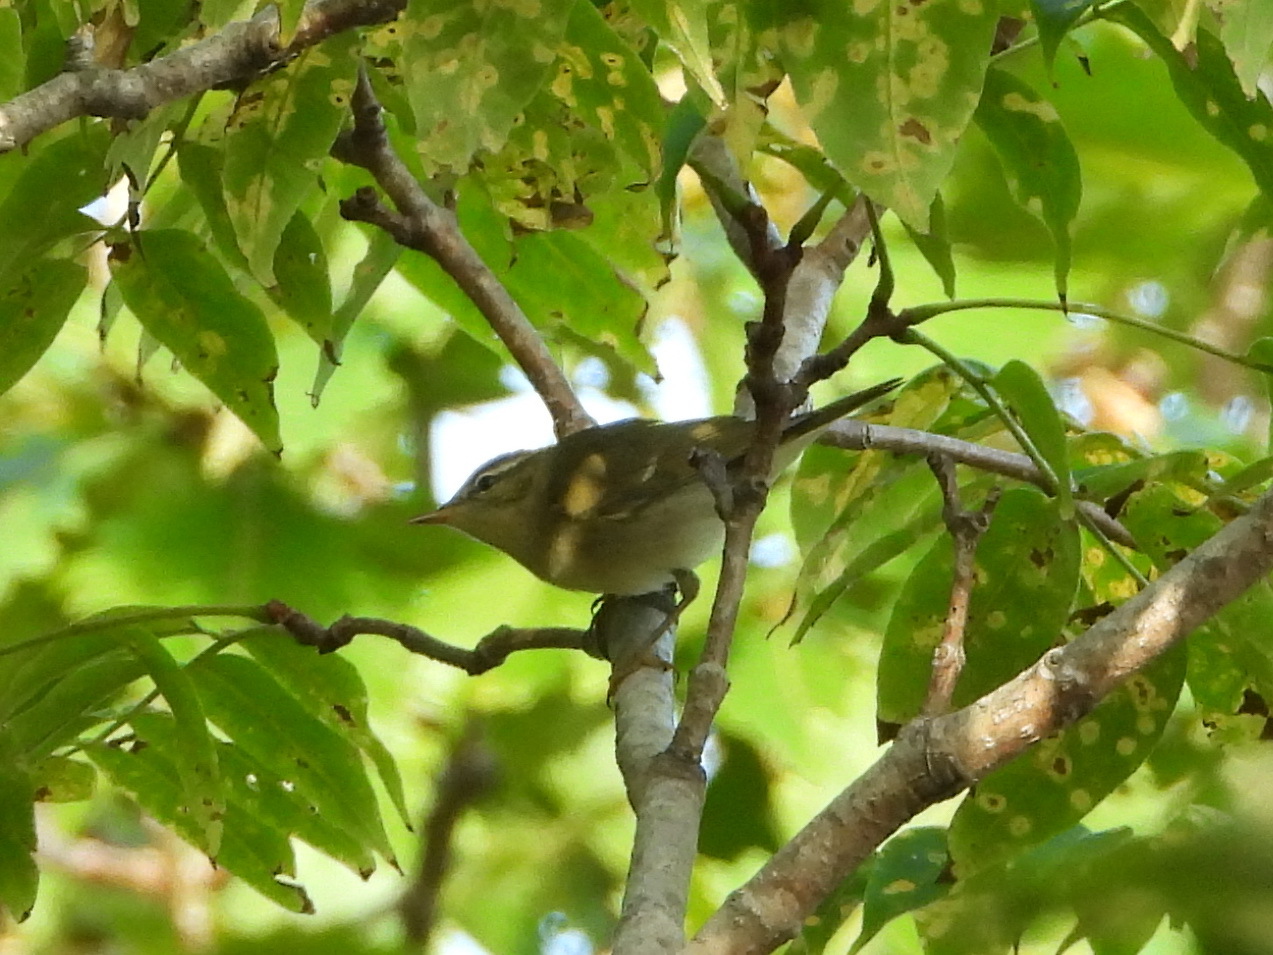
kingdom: Animalia
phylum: Chordata
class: Aves
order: Passeriformes
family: Phylloscopidae
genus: Phylloscopus
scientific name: Phylloscopus borealis
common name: Arctic warbler
